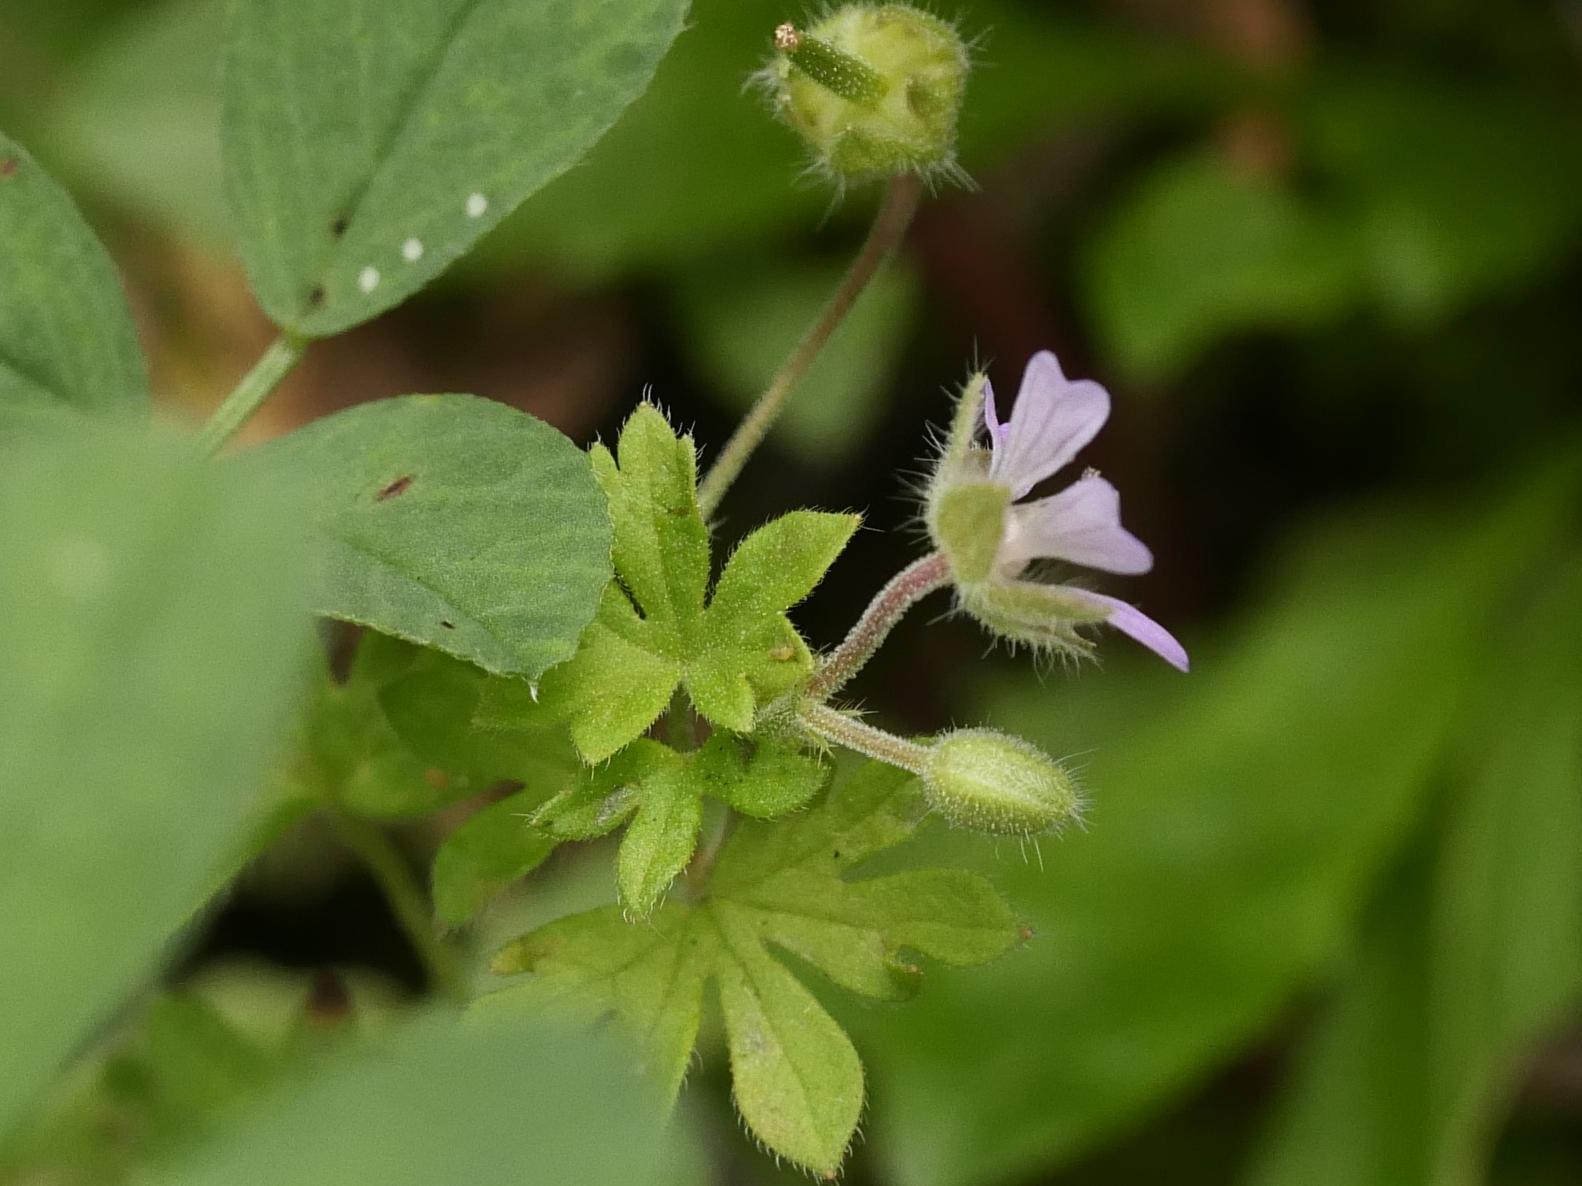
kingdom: Plantae
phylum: Tracheophyta
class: Magnoliopsida
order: Geraniales
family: Geraniaceae
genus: Geranium
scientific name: Geranium pusillum
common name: Small geranium
